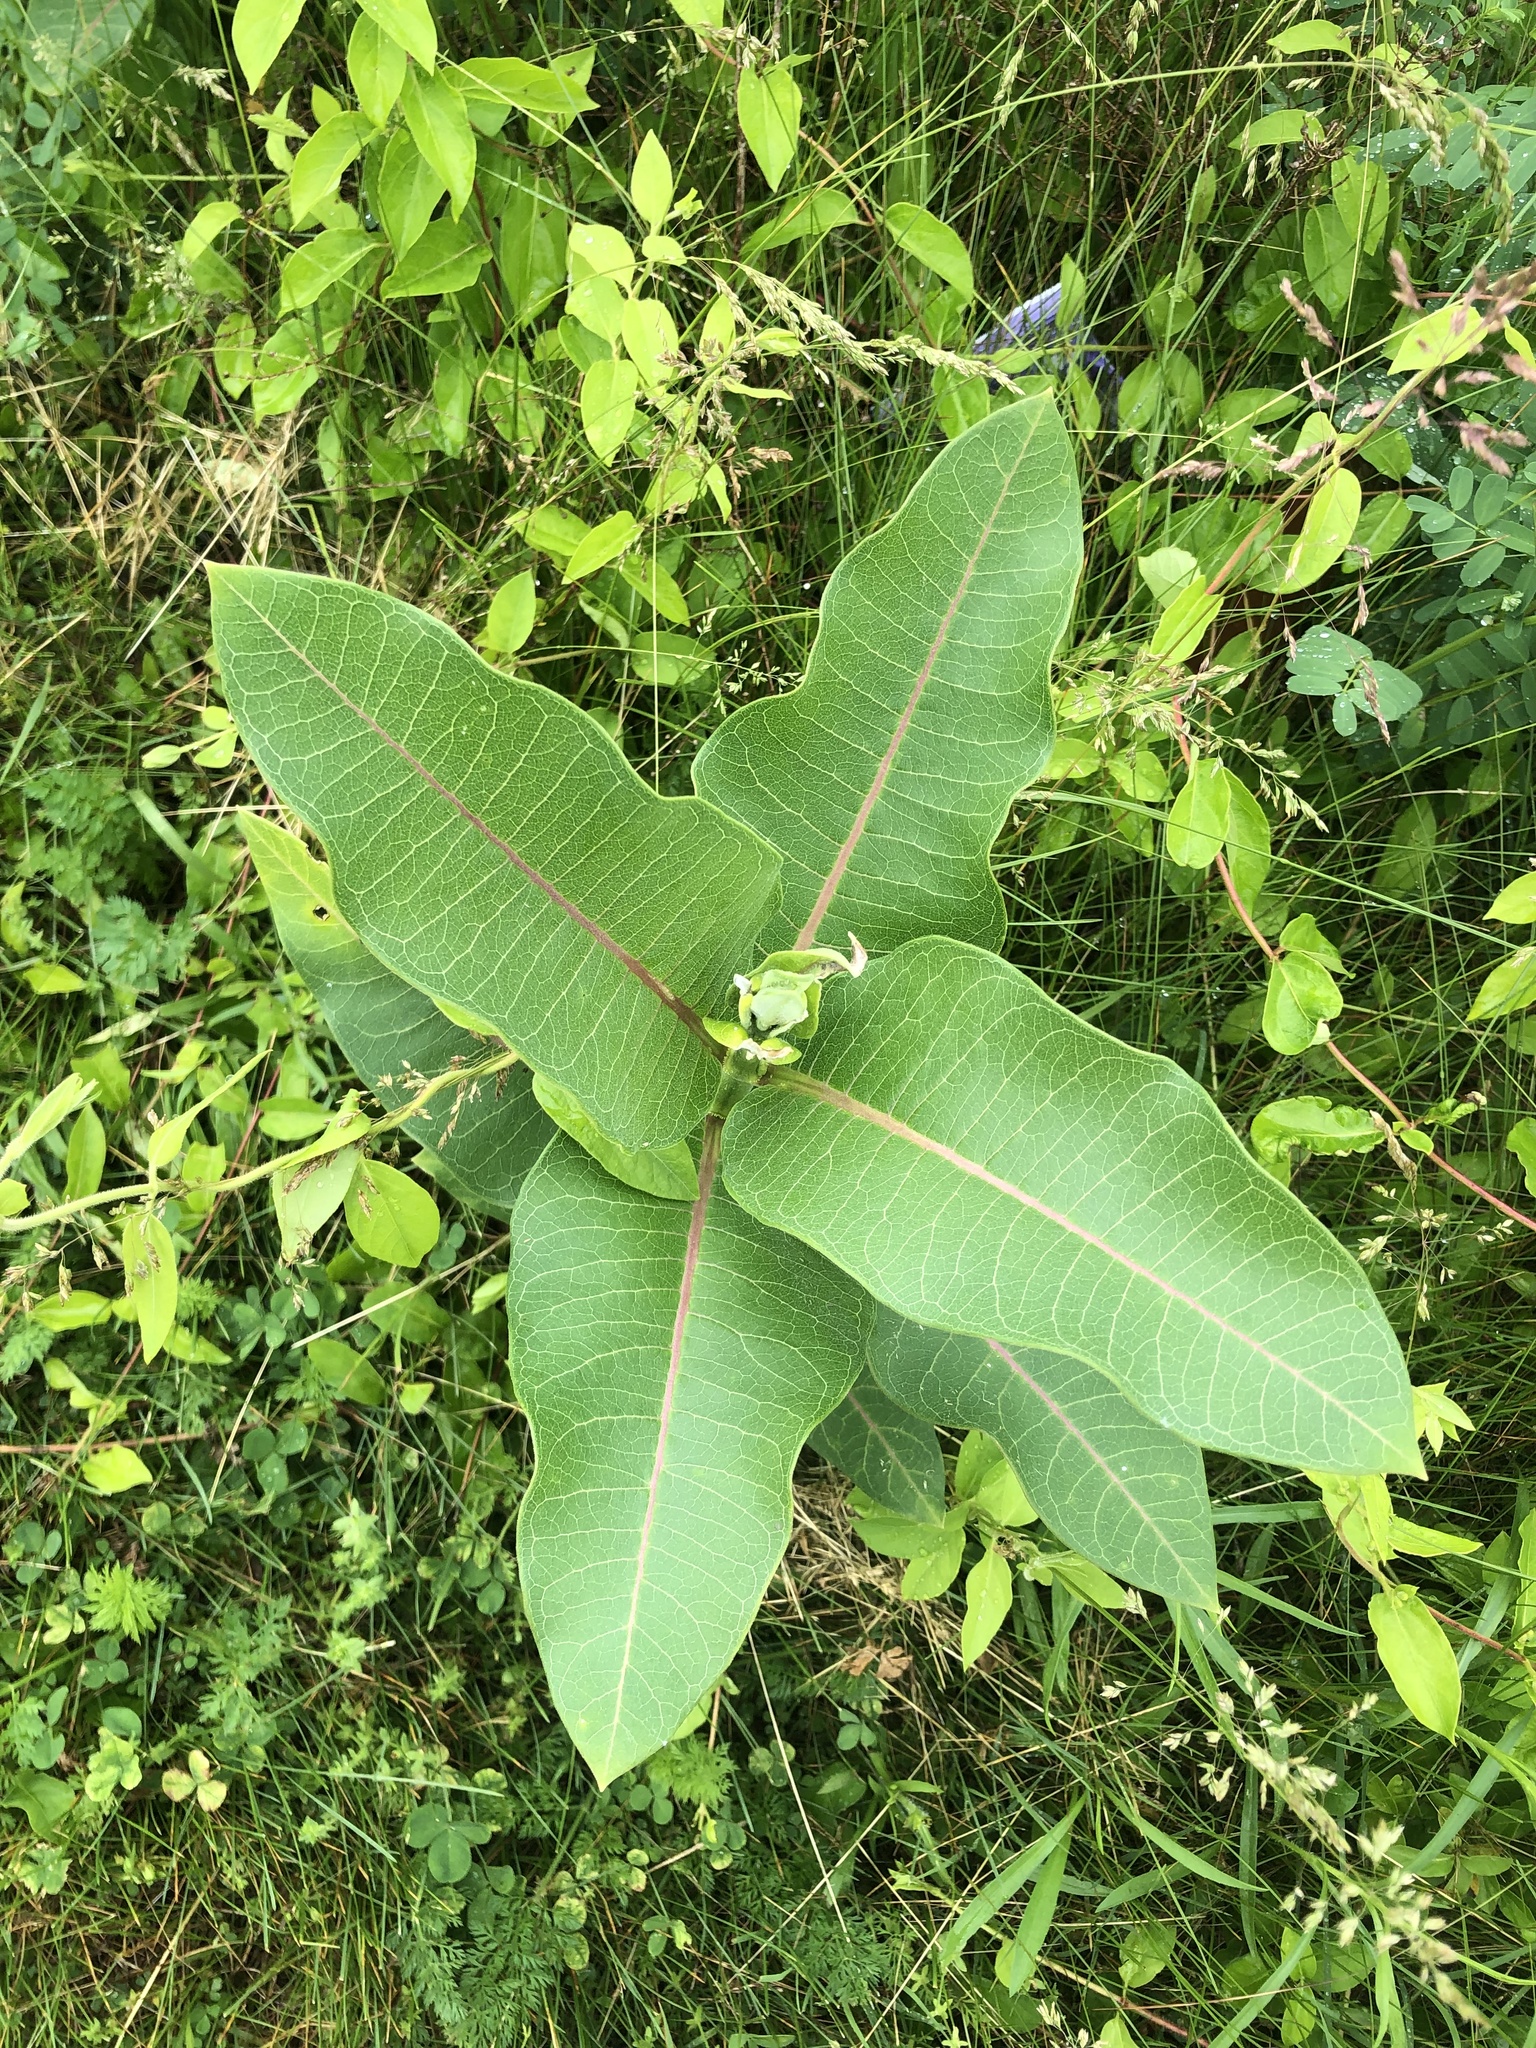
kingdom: Plantae
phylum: Tracheophyta
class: Magnoliopsida
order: Gentianales
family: Apocynaceae
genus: Asclepias
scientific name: Asclepias syriaca
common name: Common milkweed
